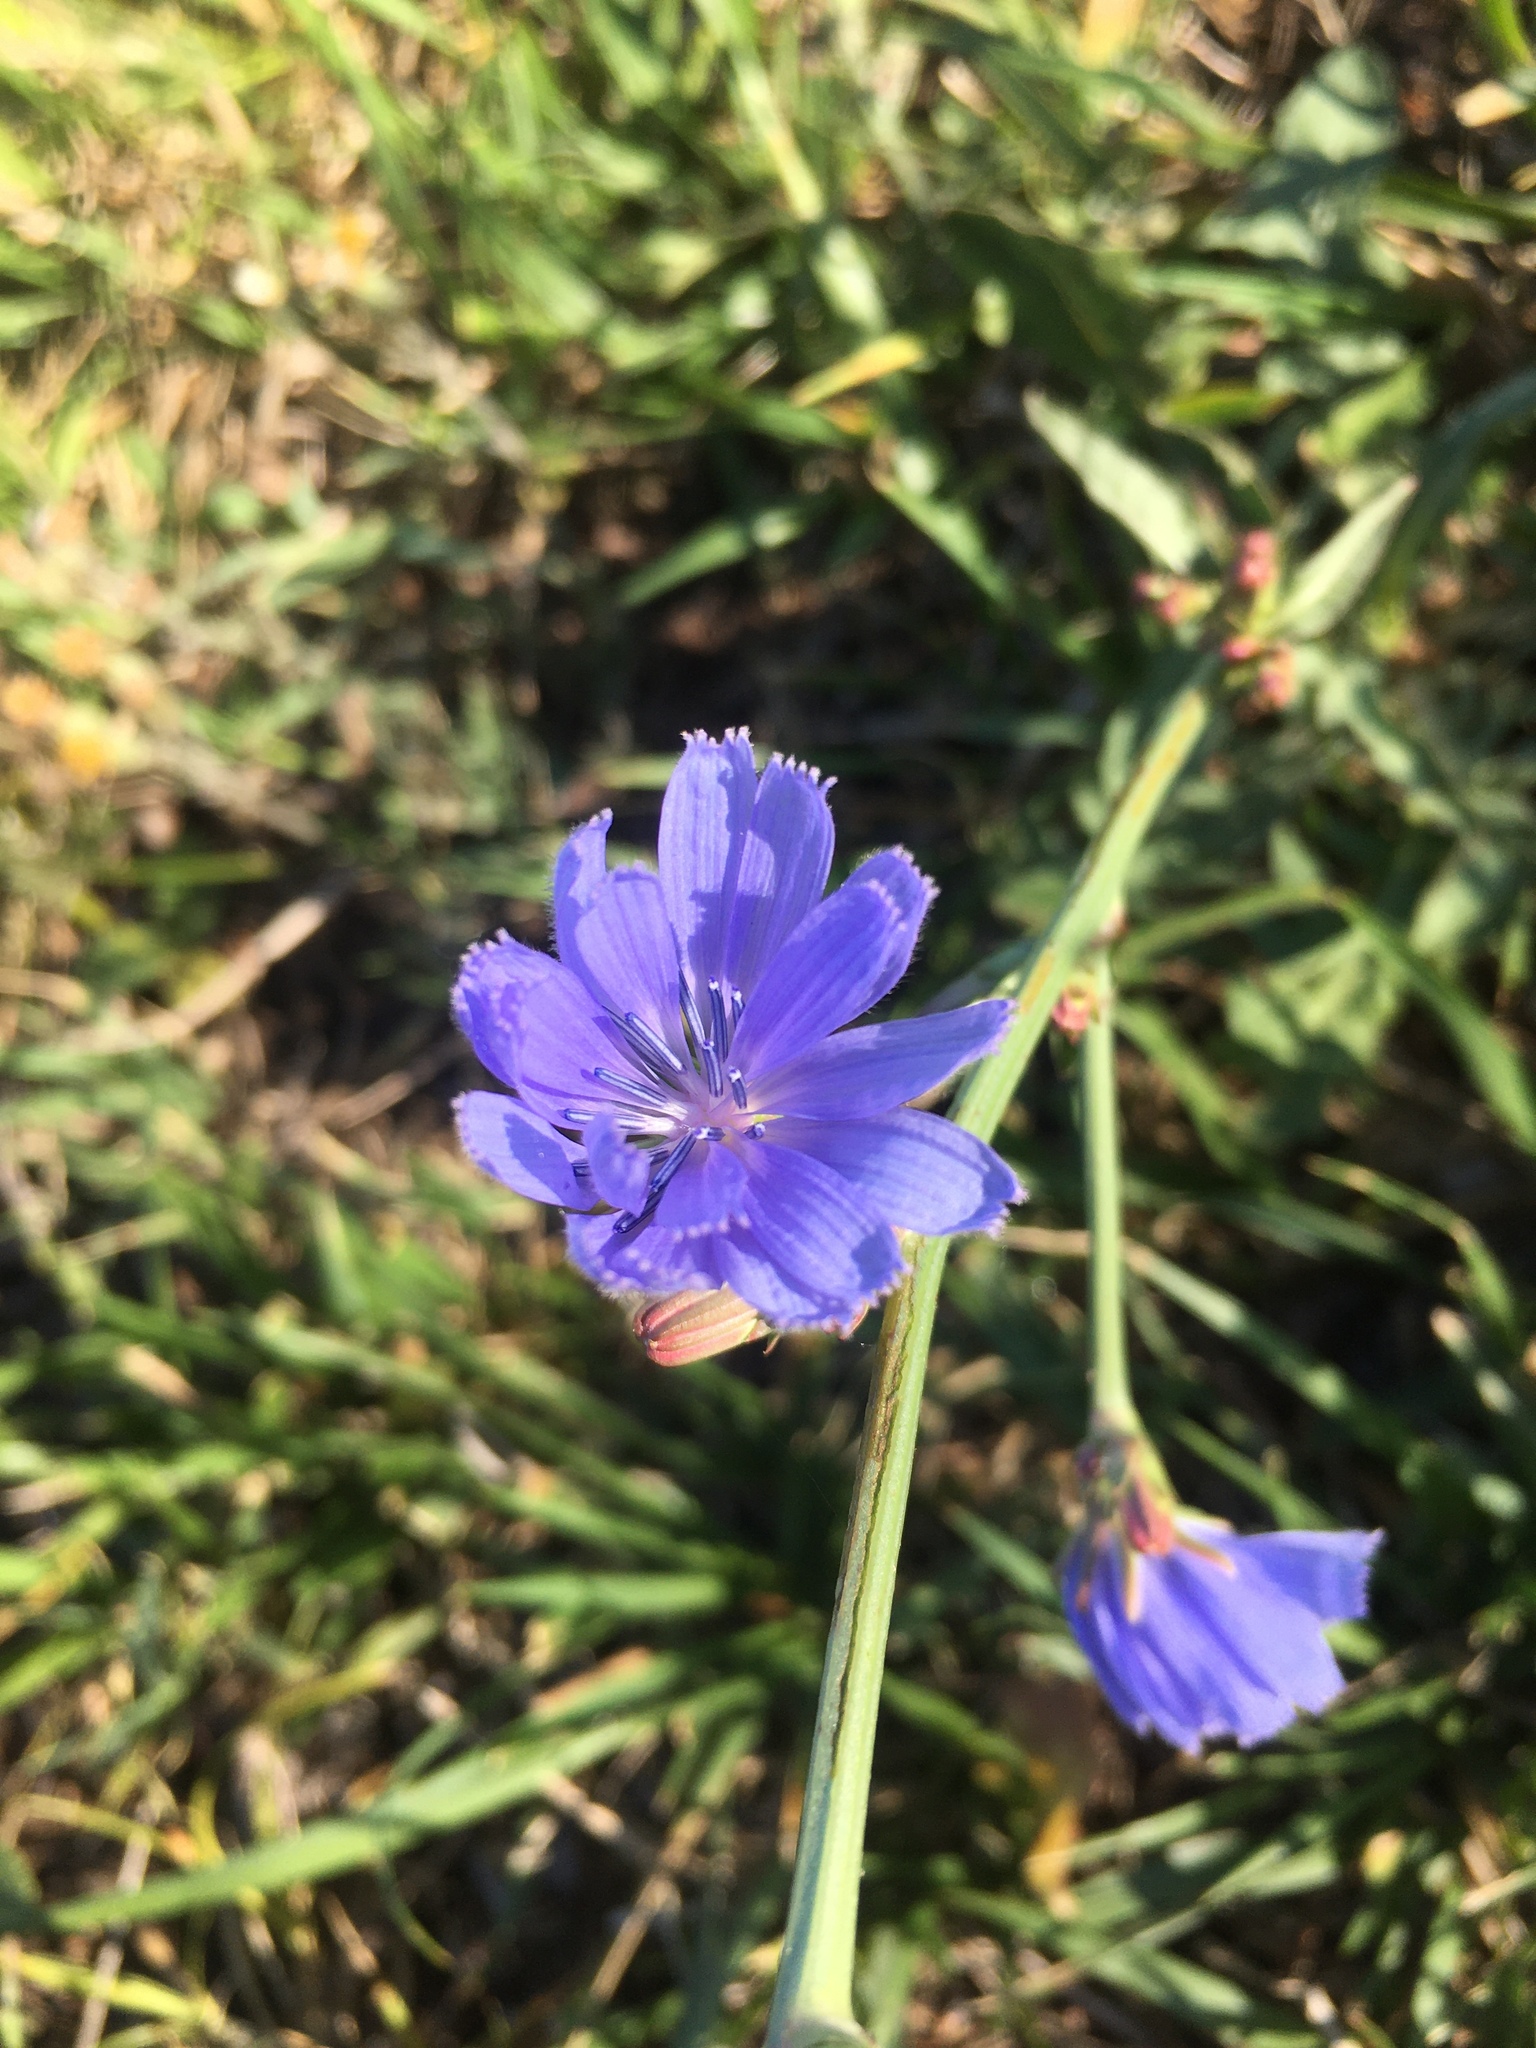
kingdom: Plantae
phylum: Tracheophyta
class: Magnoliopsida
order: Asterales
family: Asteraceae
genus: Cichorium
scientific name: Cichorium intybus
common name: Chicory
